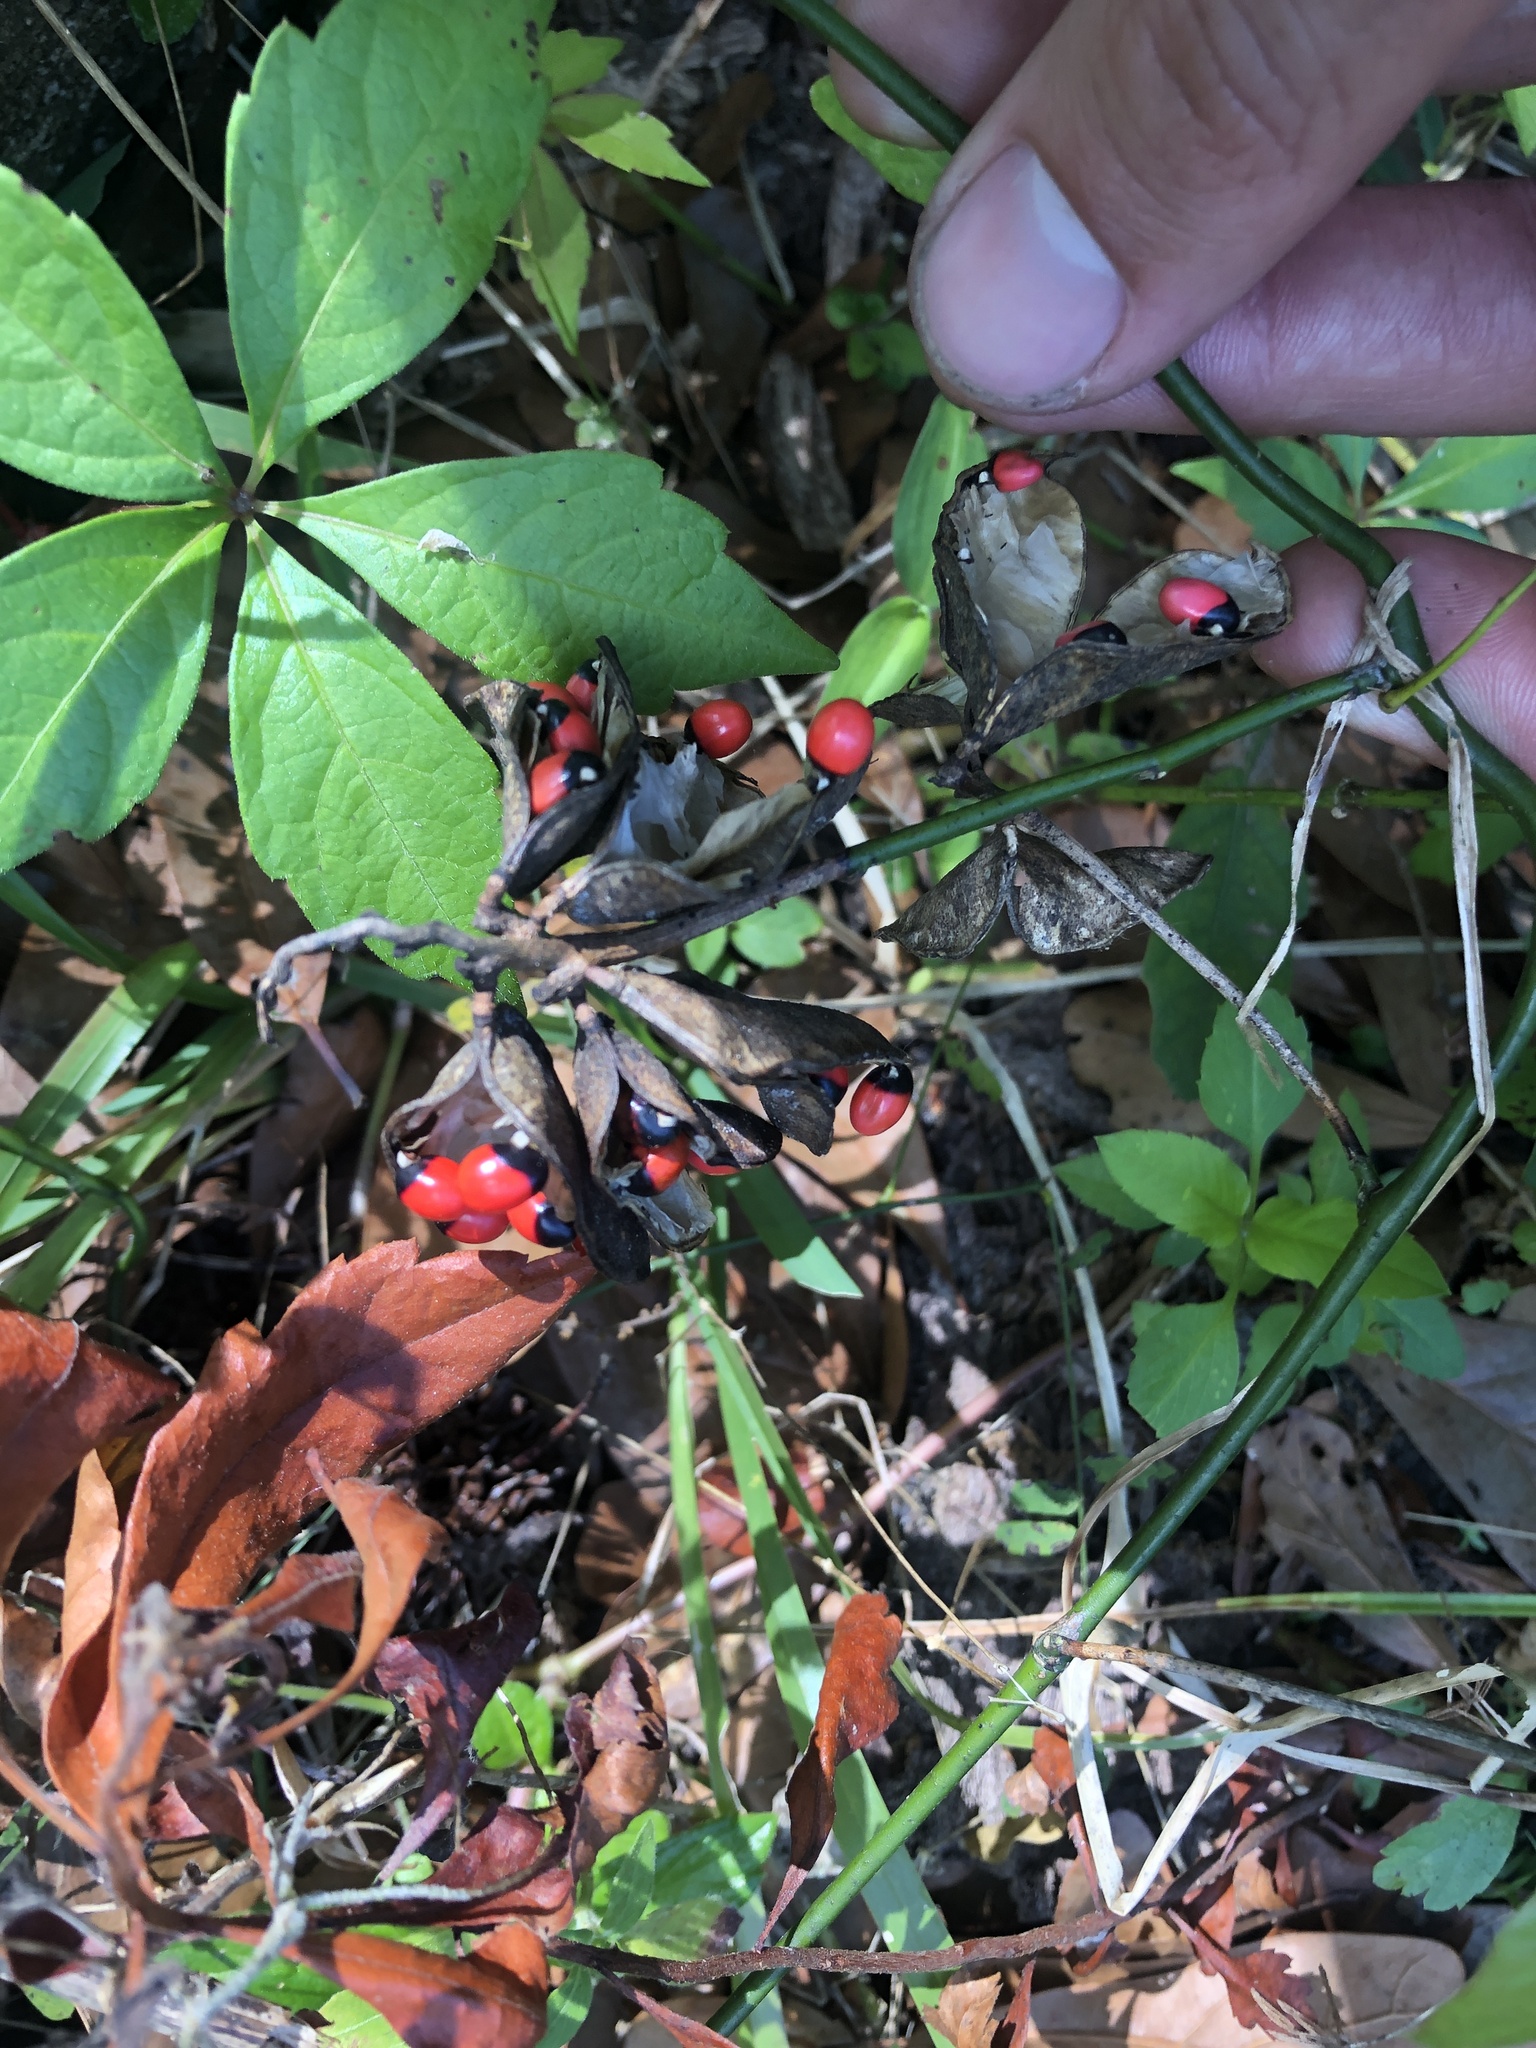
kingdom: Plantae
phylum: Tracheophyta
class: Magnoliopsida
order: Fabales
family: Fabaceae
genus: Abrus
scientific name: Abrus precatorius
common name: Rosarypea
